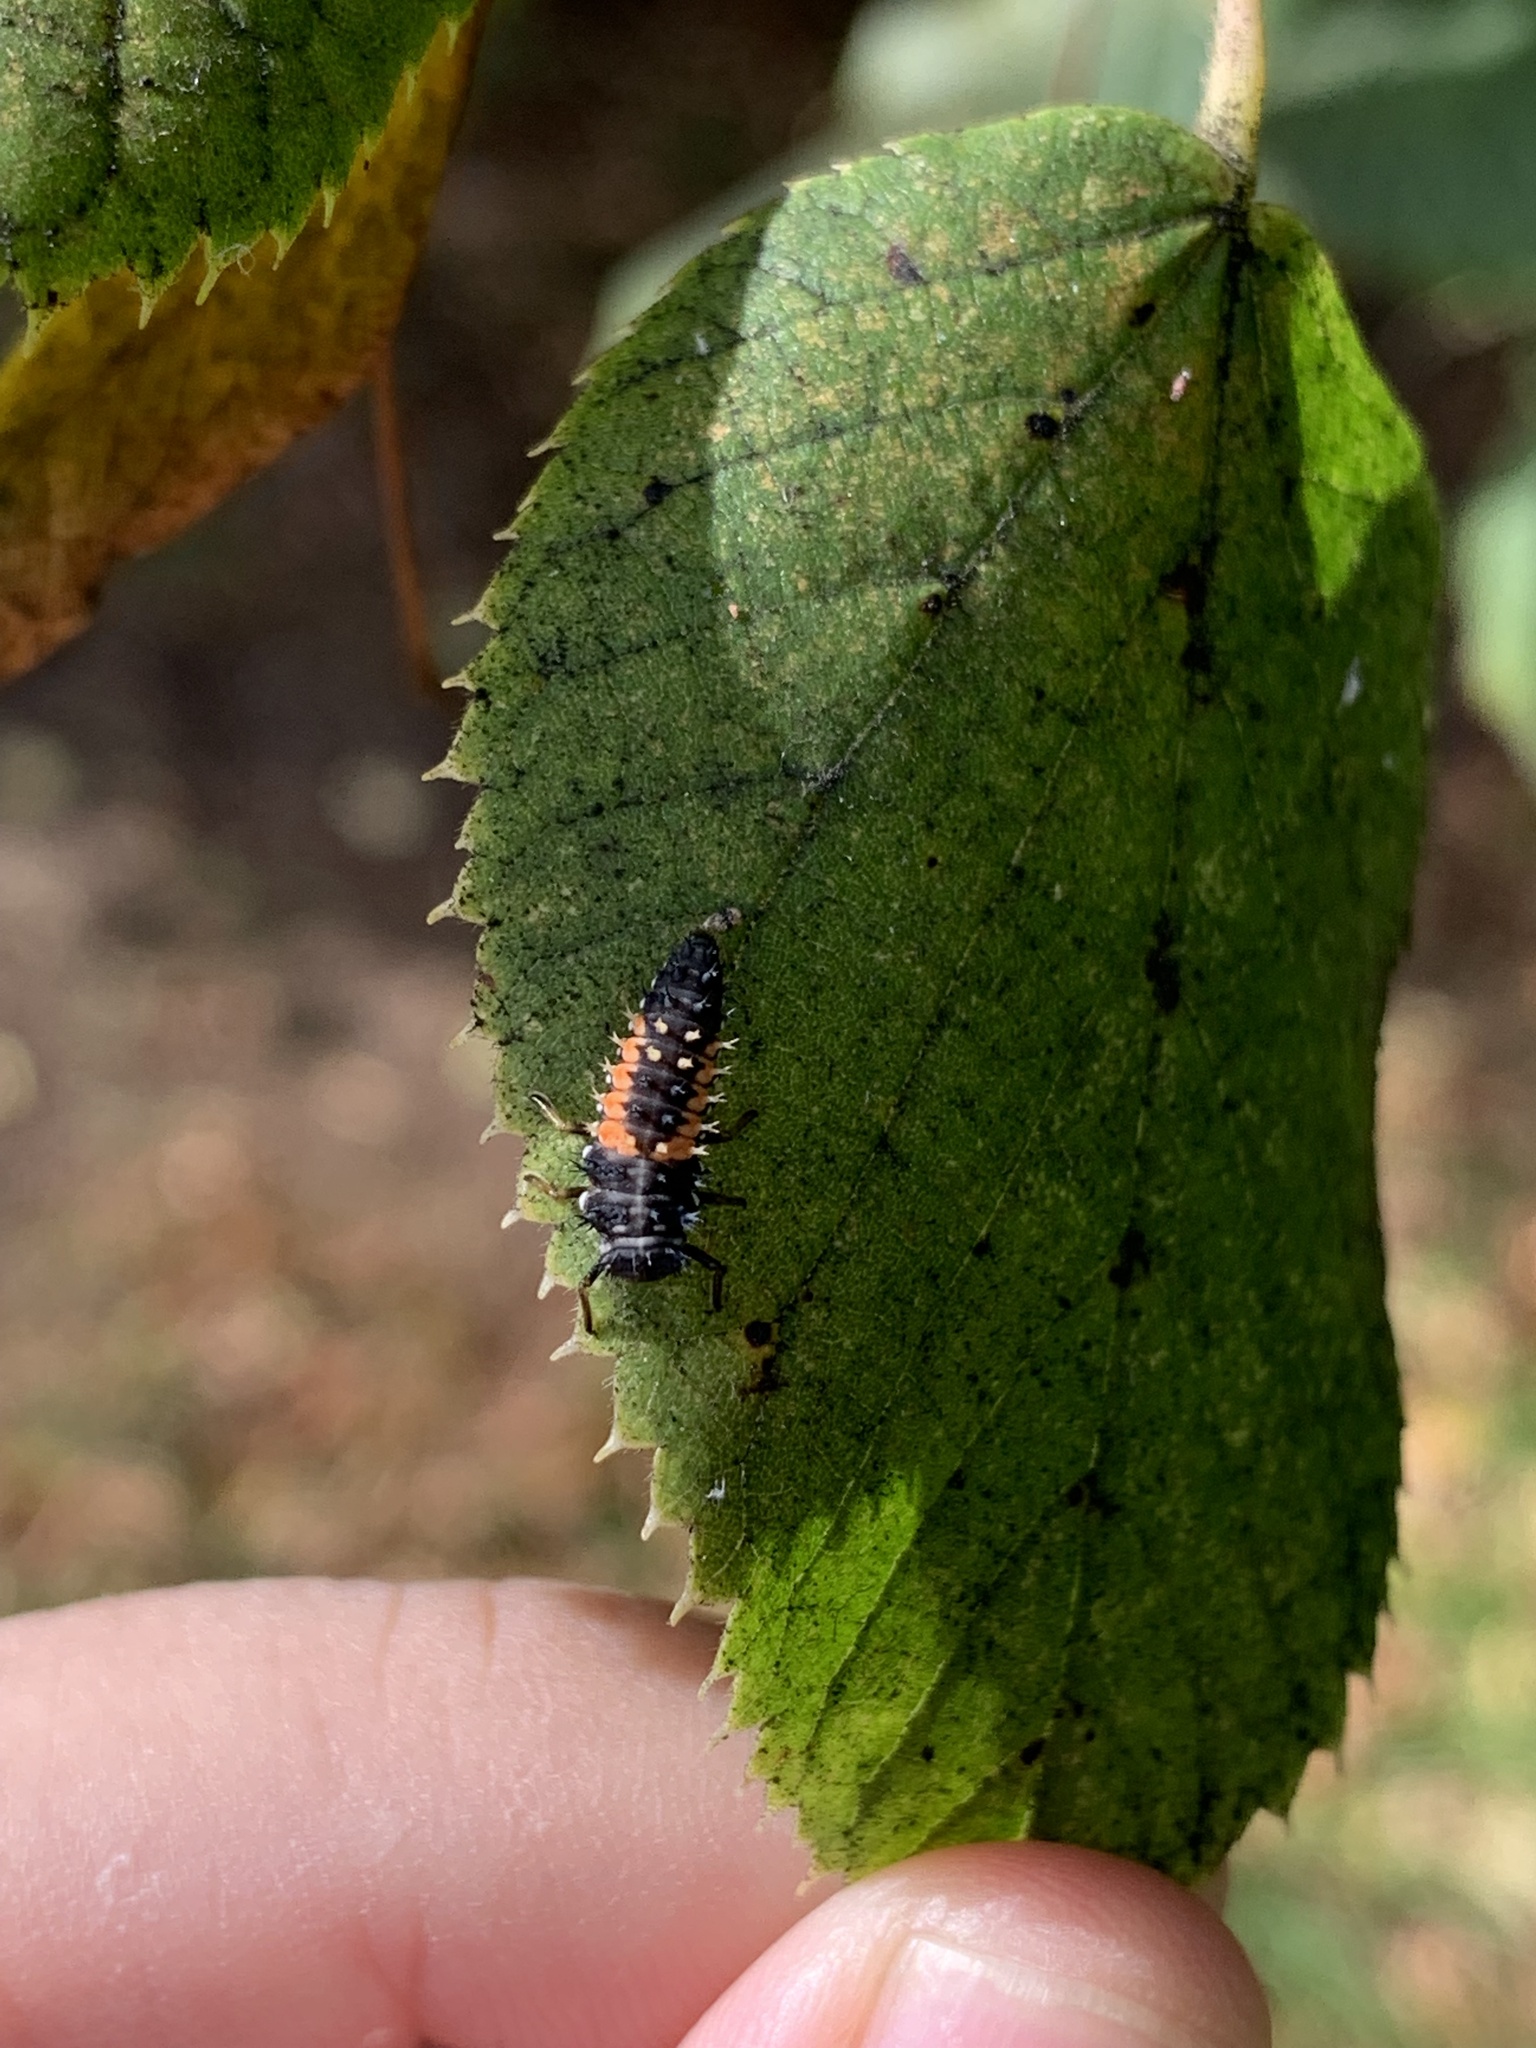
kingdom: Animalia
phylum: Arthropoda
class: Insecta
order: Coleoptera
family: Coccinellidae
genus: Harmonia
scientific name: Harmonia axyridis
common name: Harlequin ladybird
